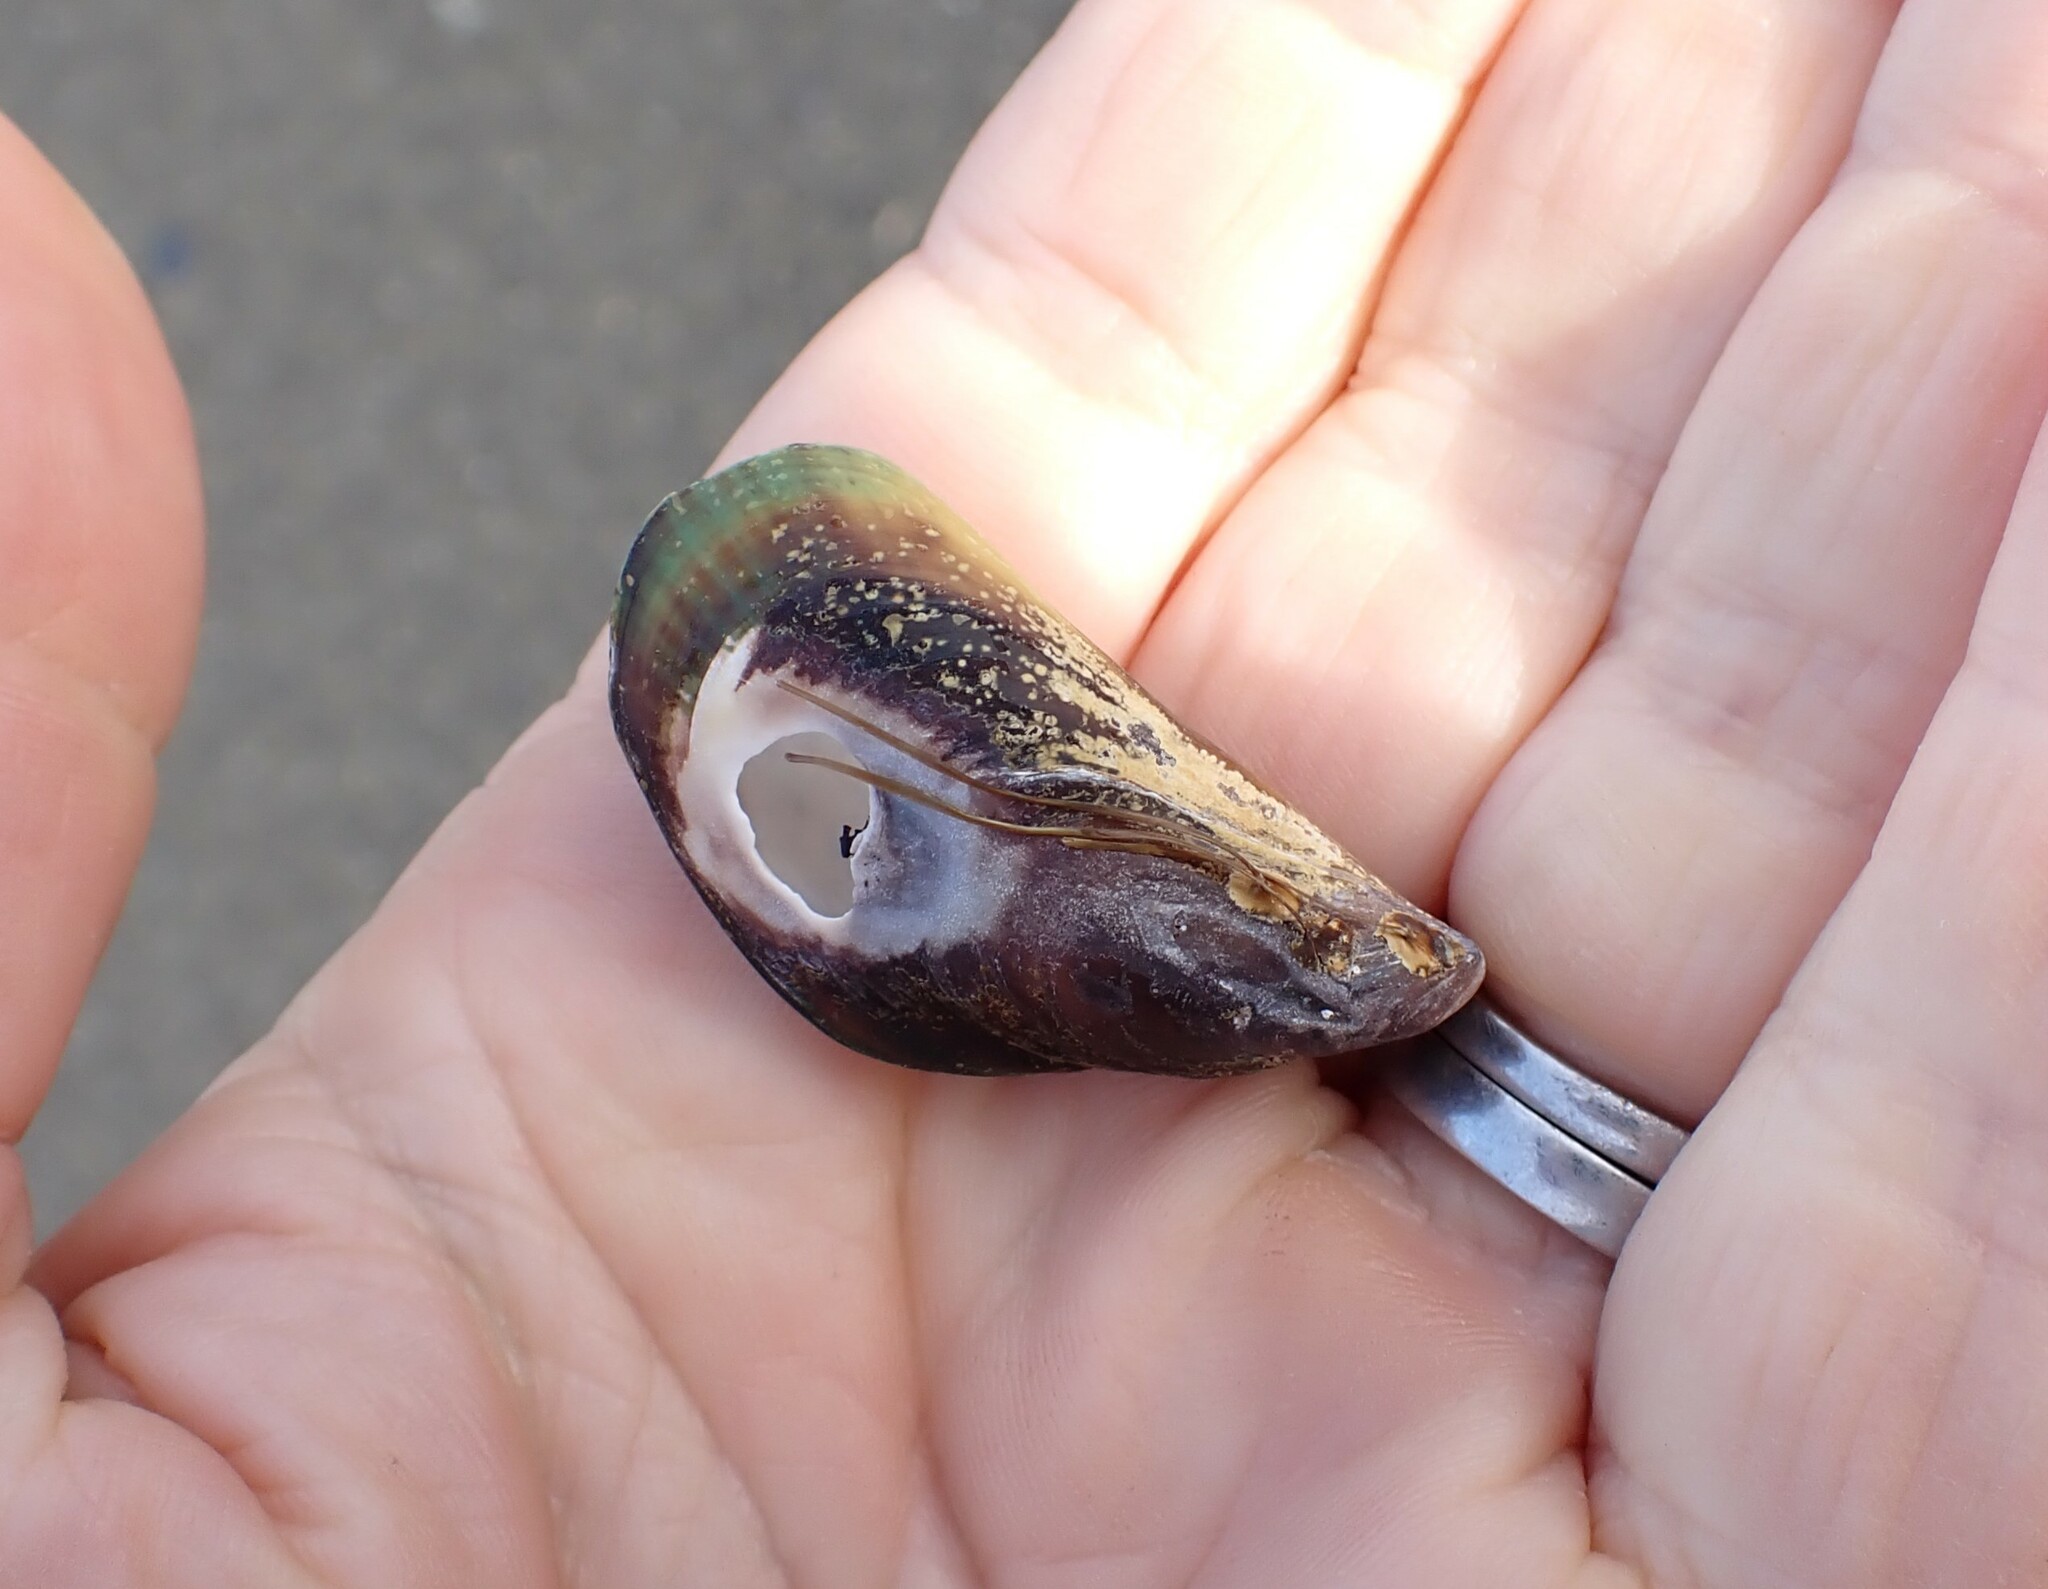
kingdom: Animalia
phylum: Mollusca
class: Bivalvia
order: Mytilida
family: Mytilidae
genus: Perna
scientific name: Perna canaliculus
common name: New zealand greenshelltm
